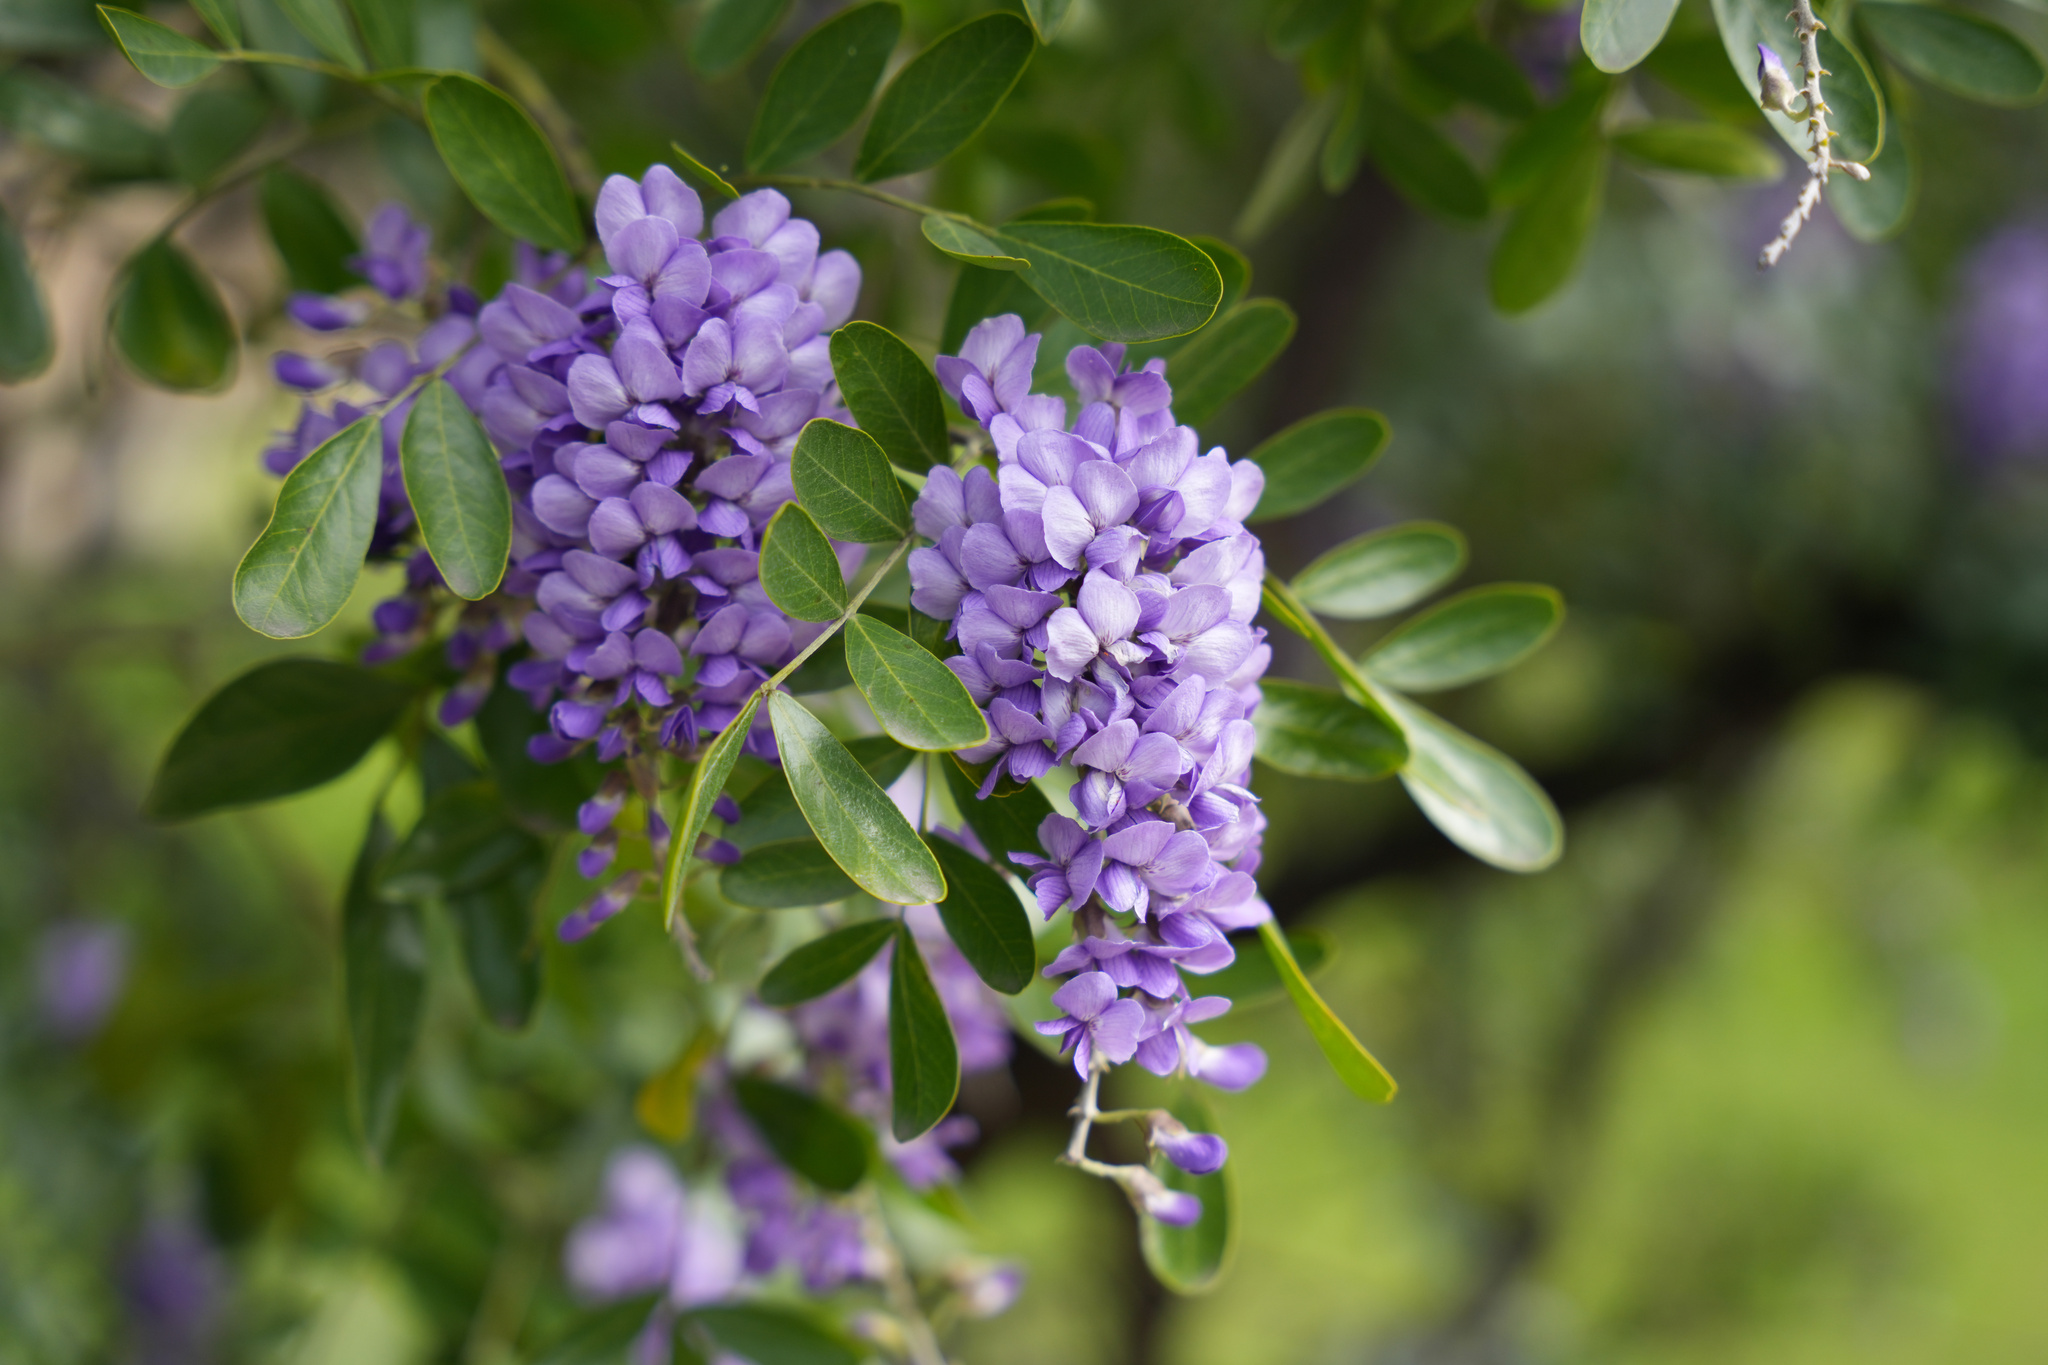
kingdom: Plantae
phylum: Tracheophyta
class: Magnoliopsida
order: Fabales
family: Fabaceae
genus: Dermatophyllum
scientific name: Dermatophyllum secundiflorum
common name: Texas-mountain-laurel
